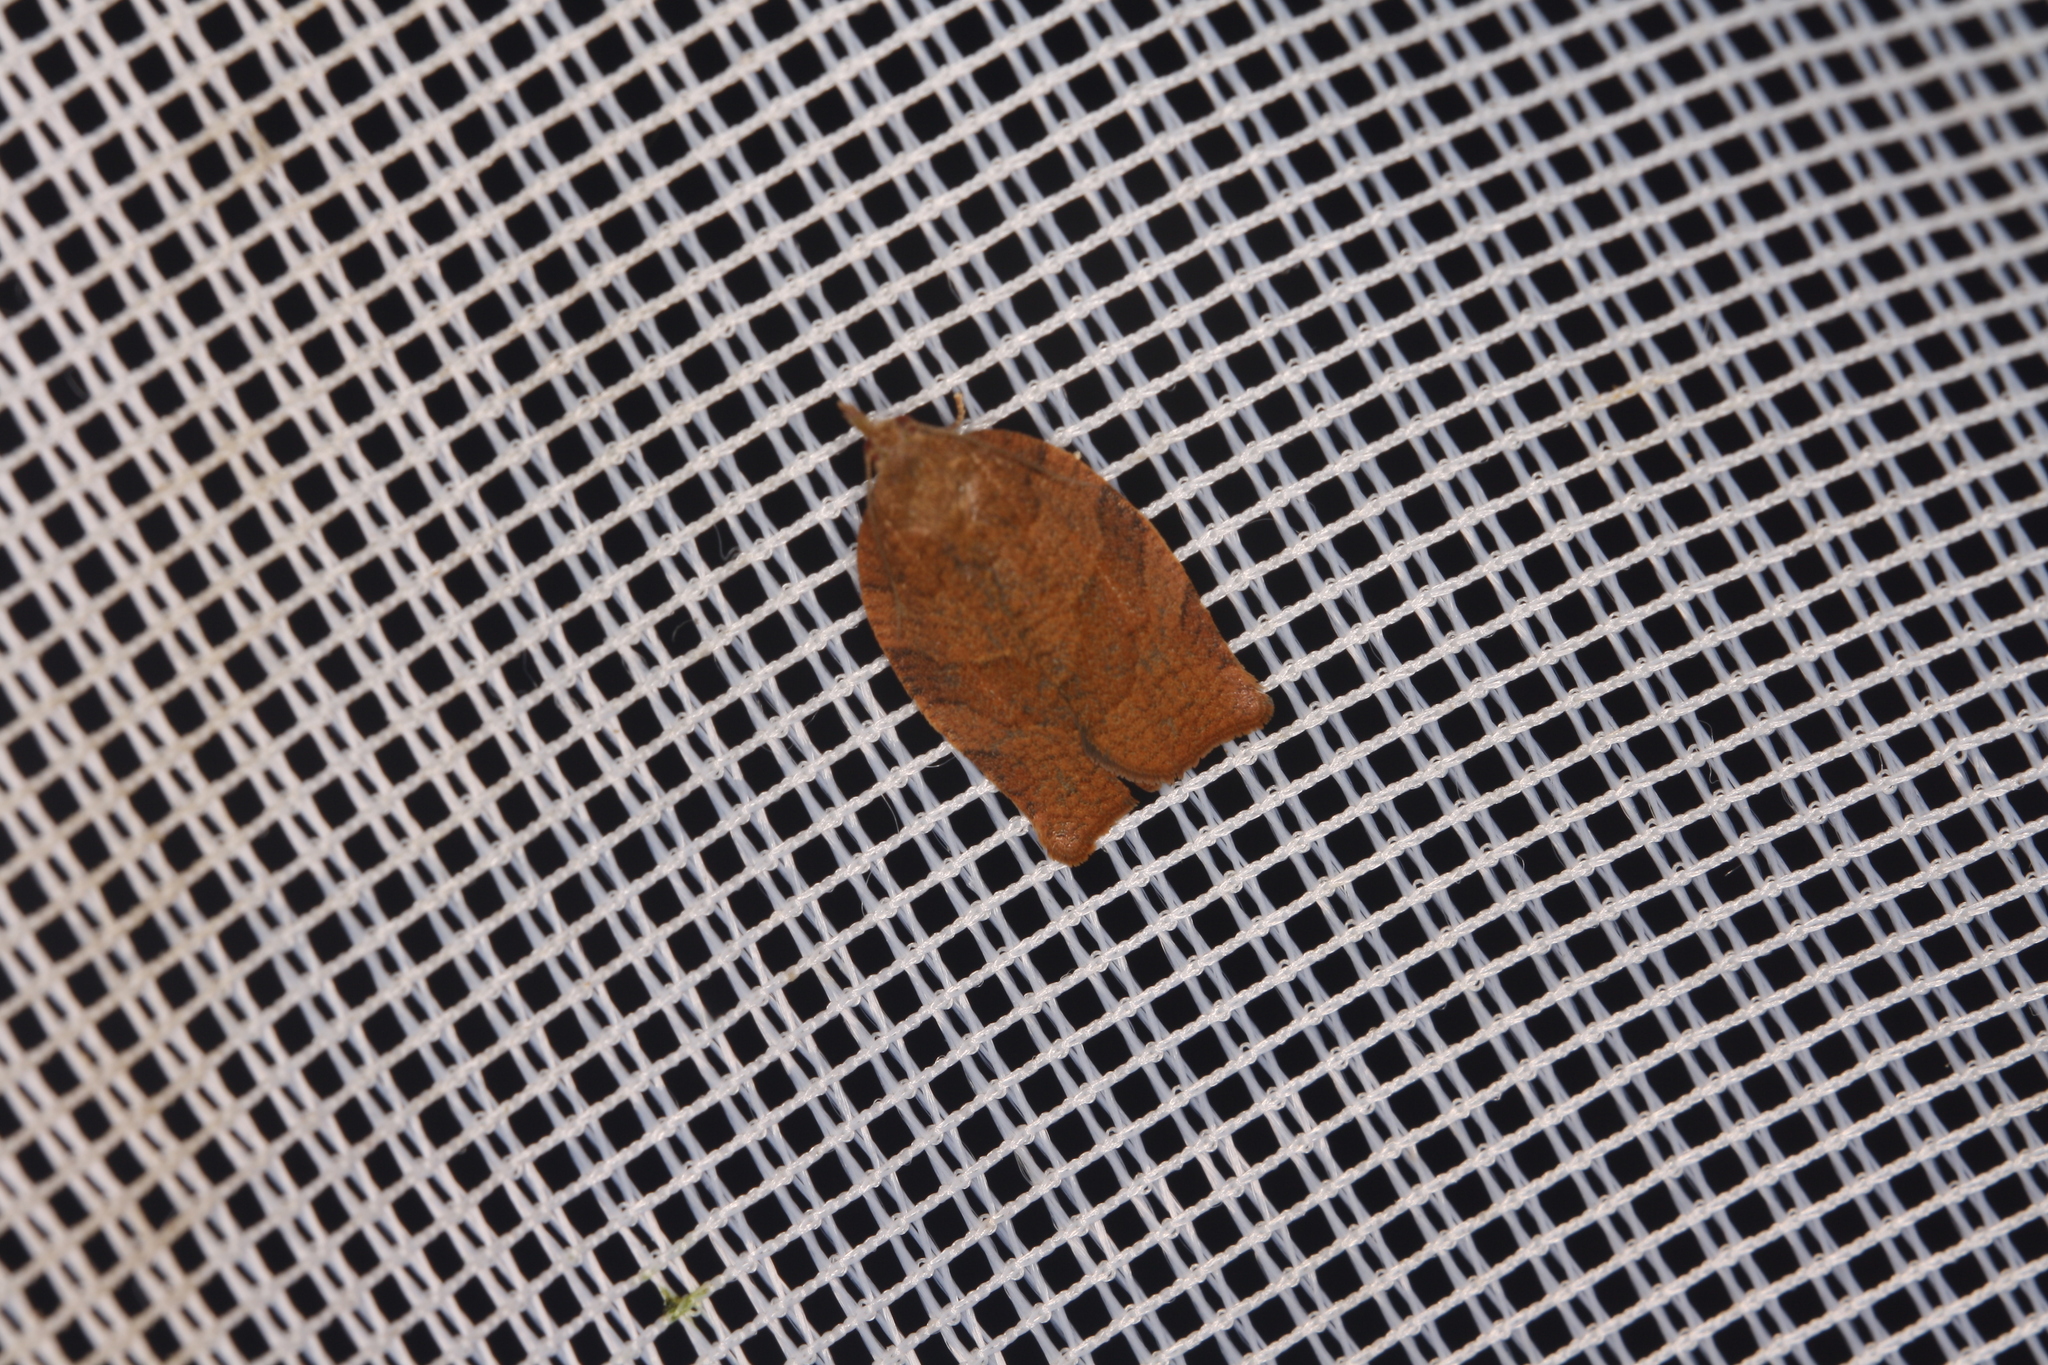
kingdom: Animalia
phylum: Arthropoda
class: Insecta
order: Lepidoptera
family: Tortricidae
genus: Pandemis
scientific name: Pandemis heparana
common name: Dark fruit-tree tortrix
